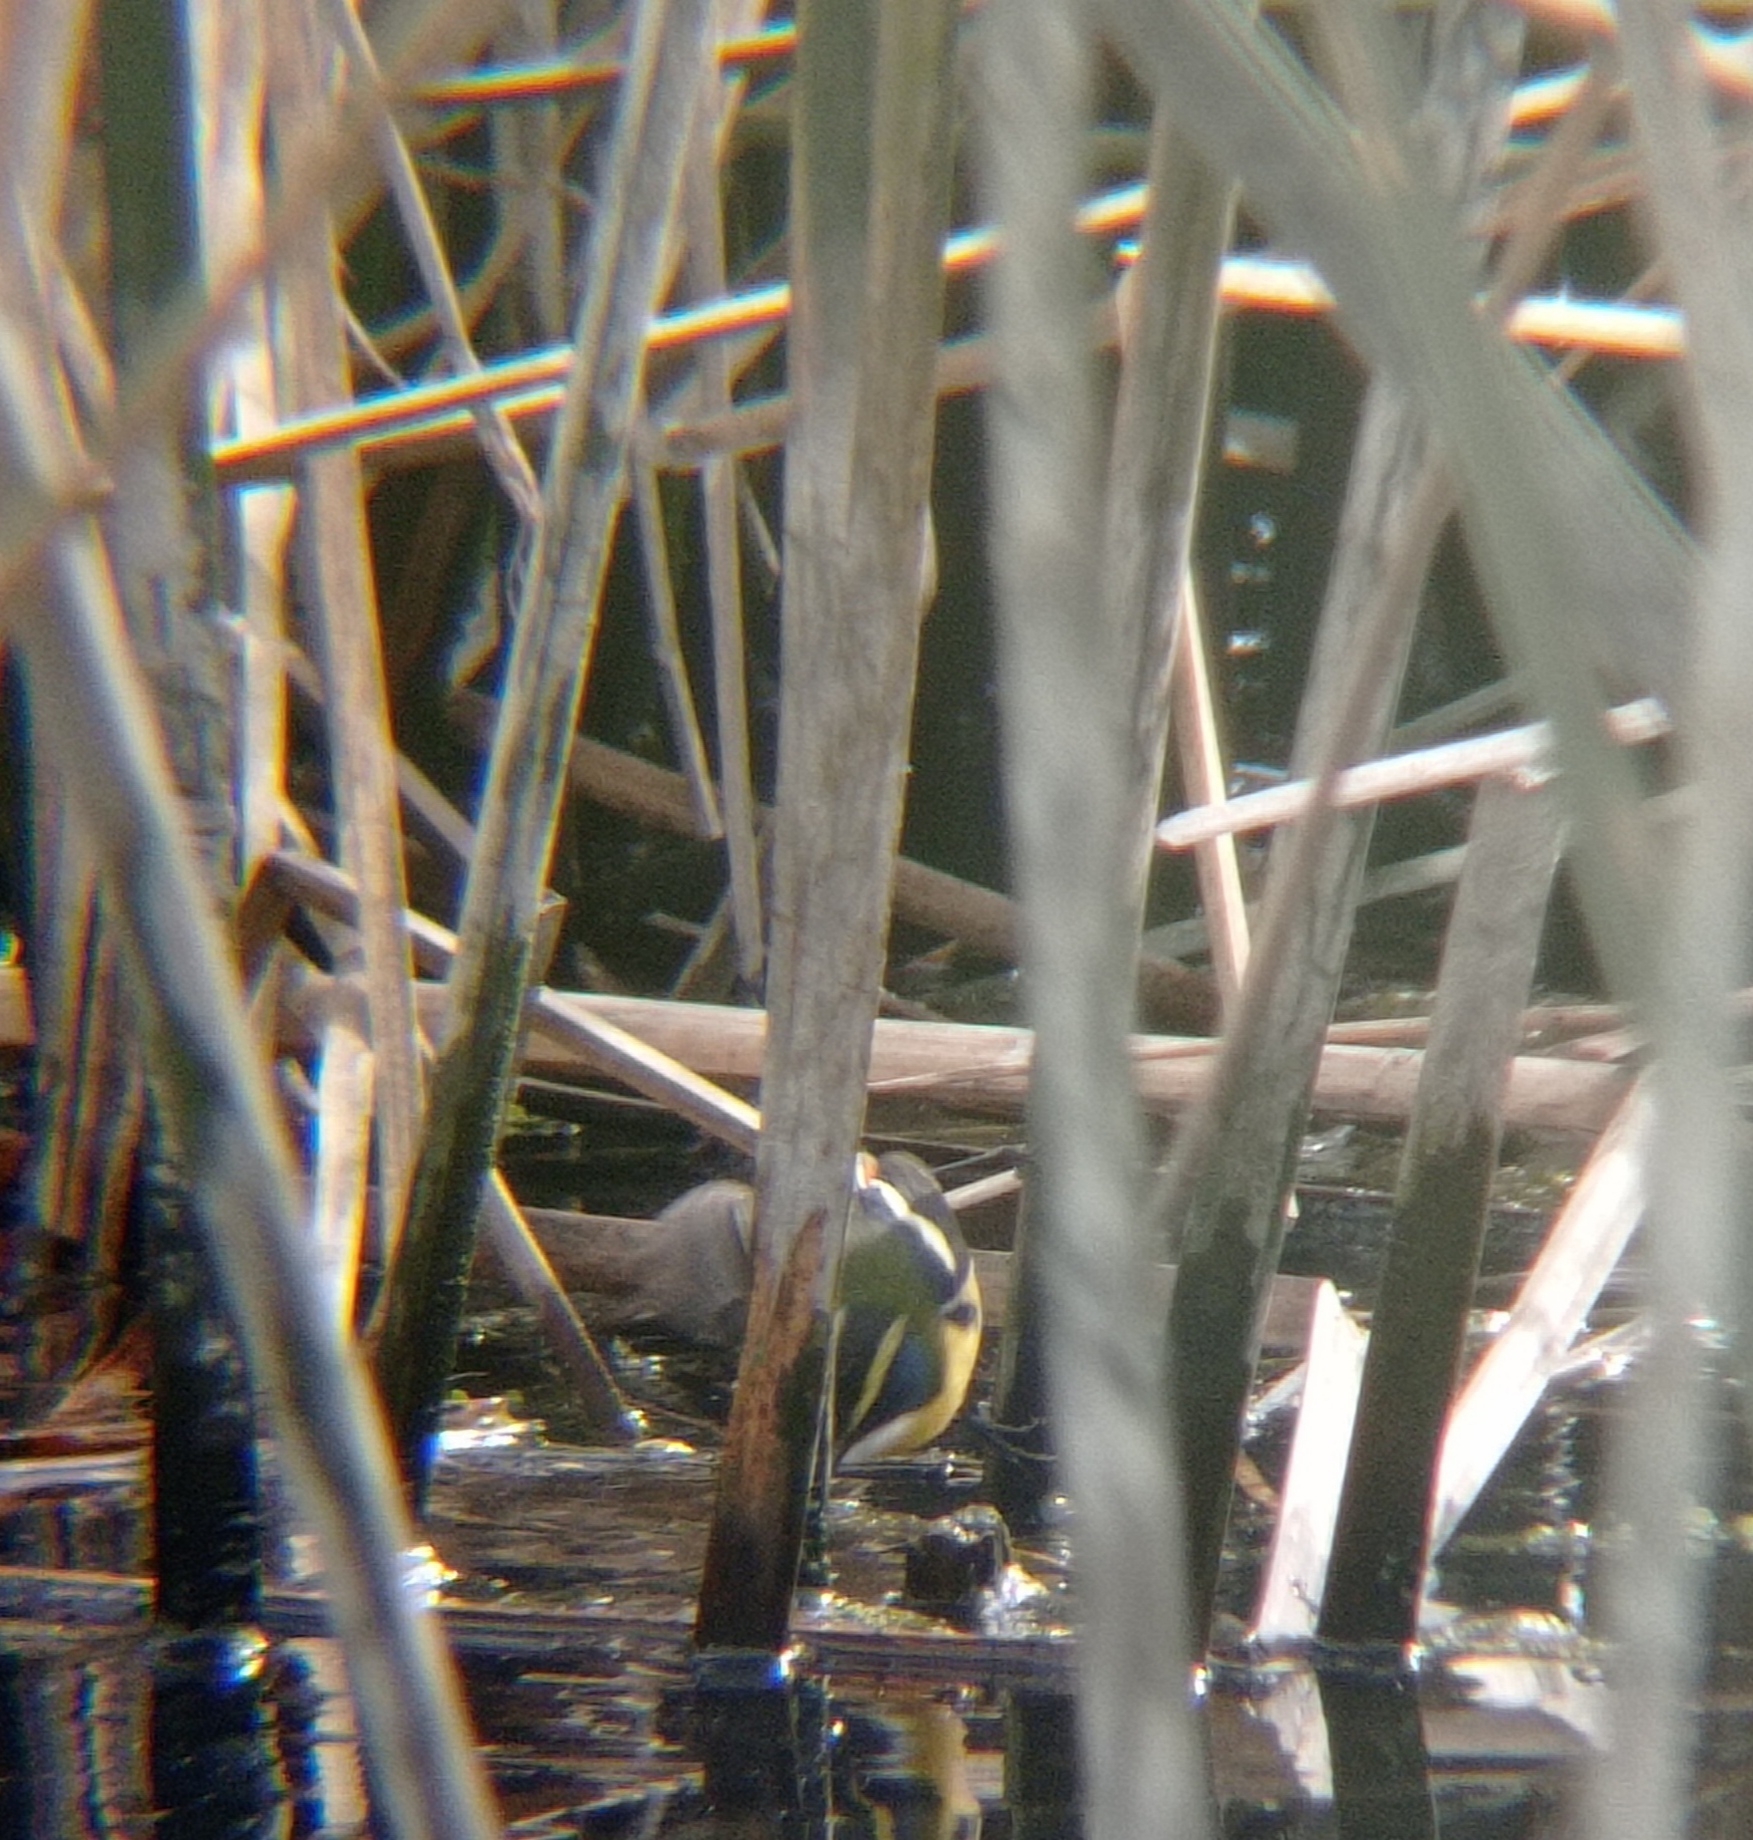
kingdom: Animalia
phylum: Chordata
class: Aves
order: Passeriformes
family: Tyrannidae
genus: Tachuris
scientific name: Tachuris rubrigastra
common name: Many-colored rush tyrant
